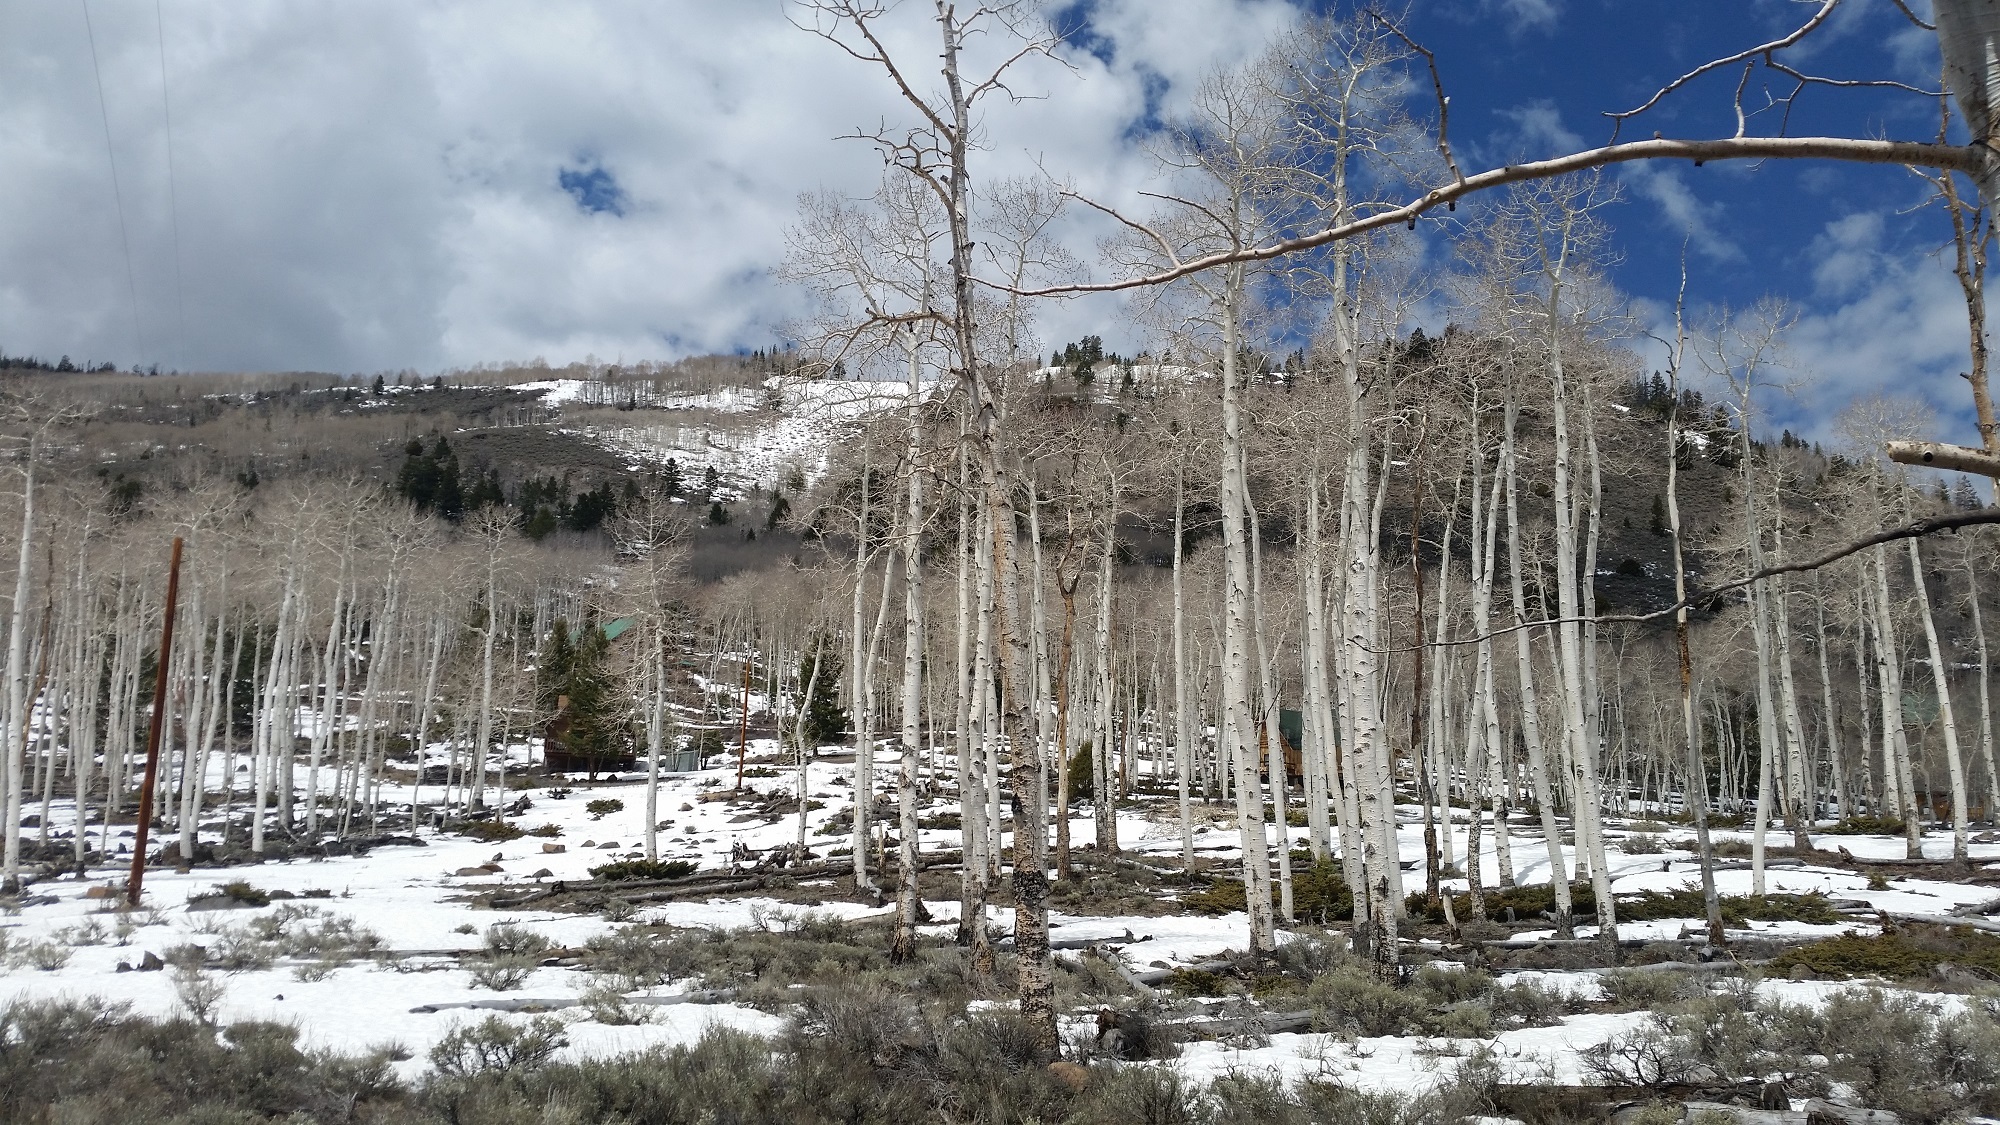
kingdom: Plantae
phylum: Tracheophyta
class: Magnoliopsida
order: Malpighiales
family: Salicaceae
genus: Populus
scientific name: Populus tremuloides
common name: Quaking aspen
